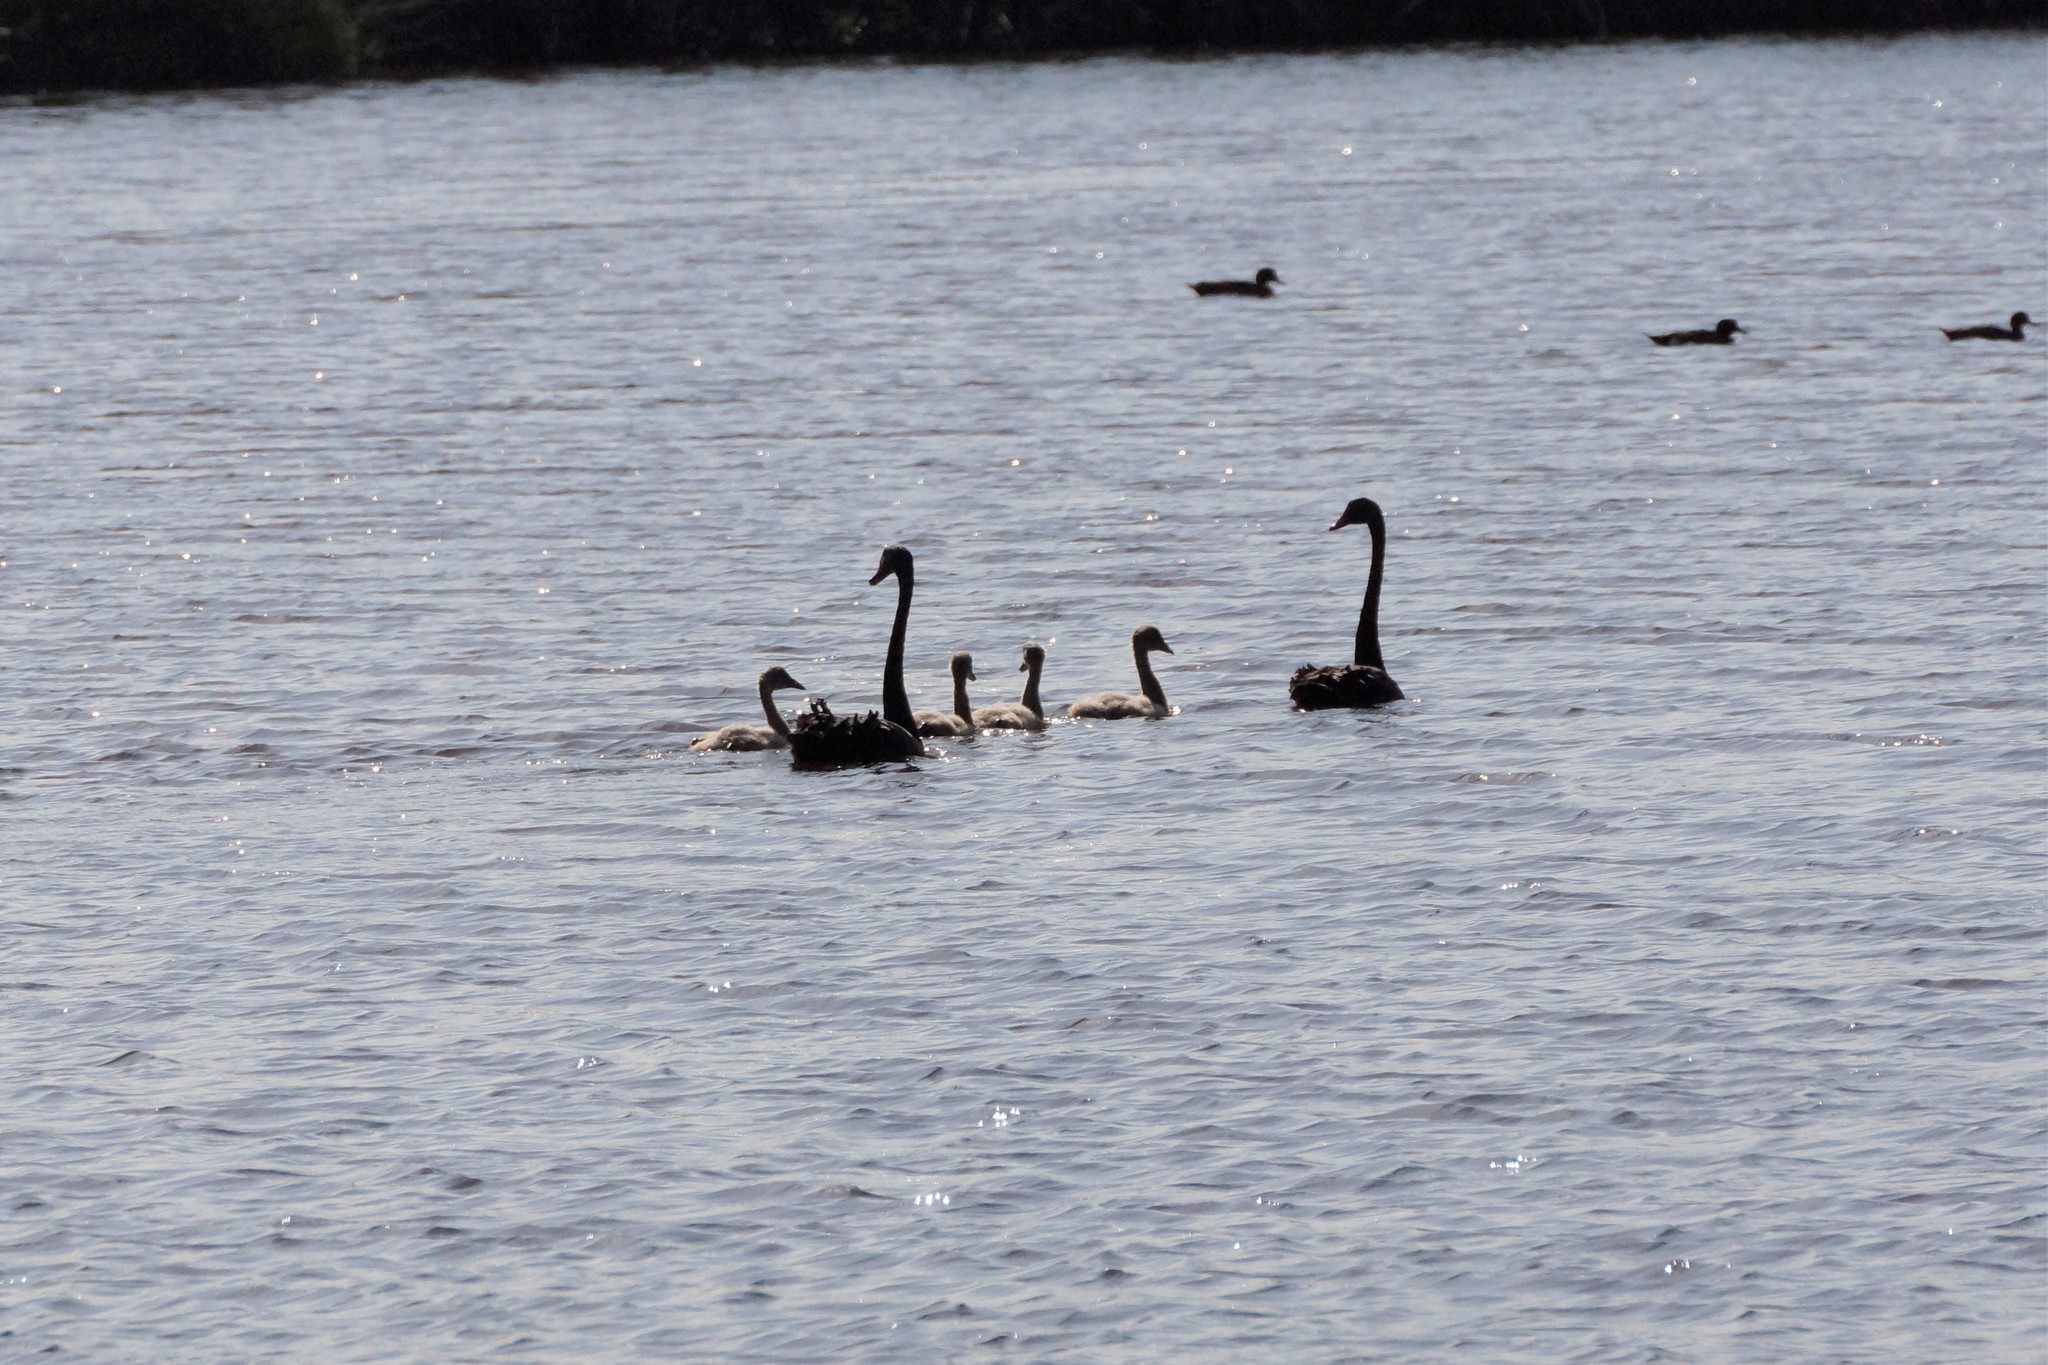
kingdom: Animalia
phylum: Chordata
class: Aves
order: Anseriformes
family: Anatidae
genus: Cygnus
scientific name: Cygnus atratus
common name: Black swan
